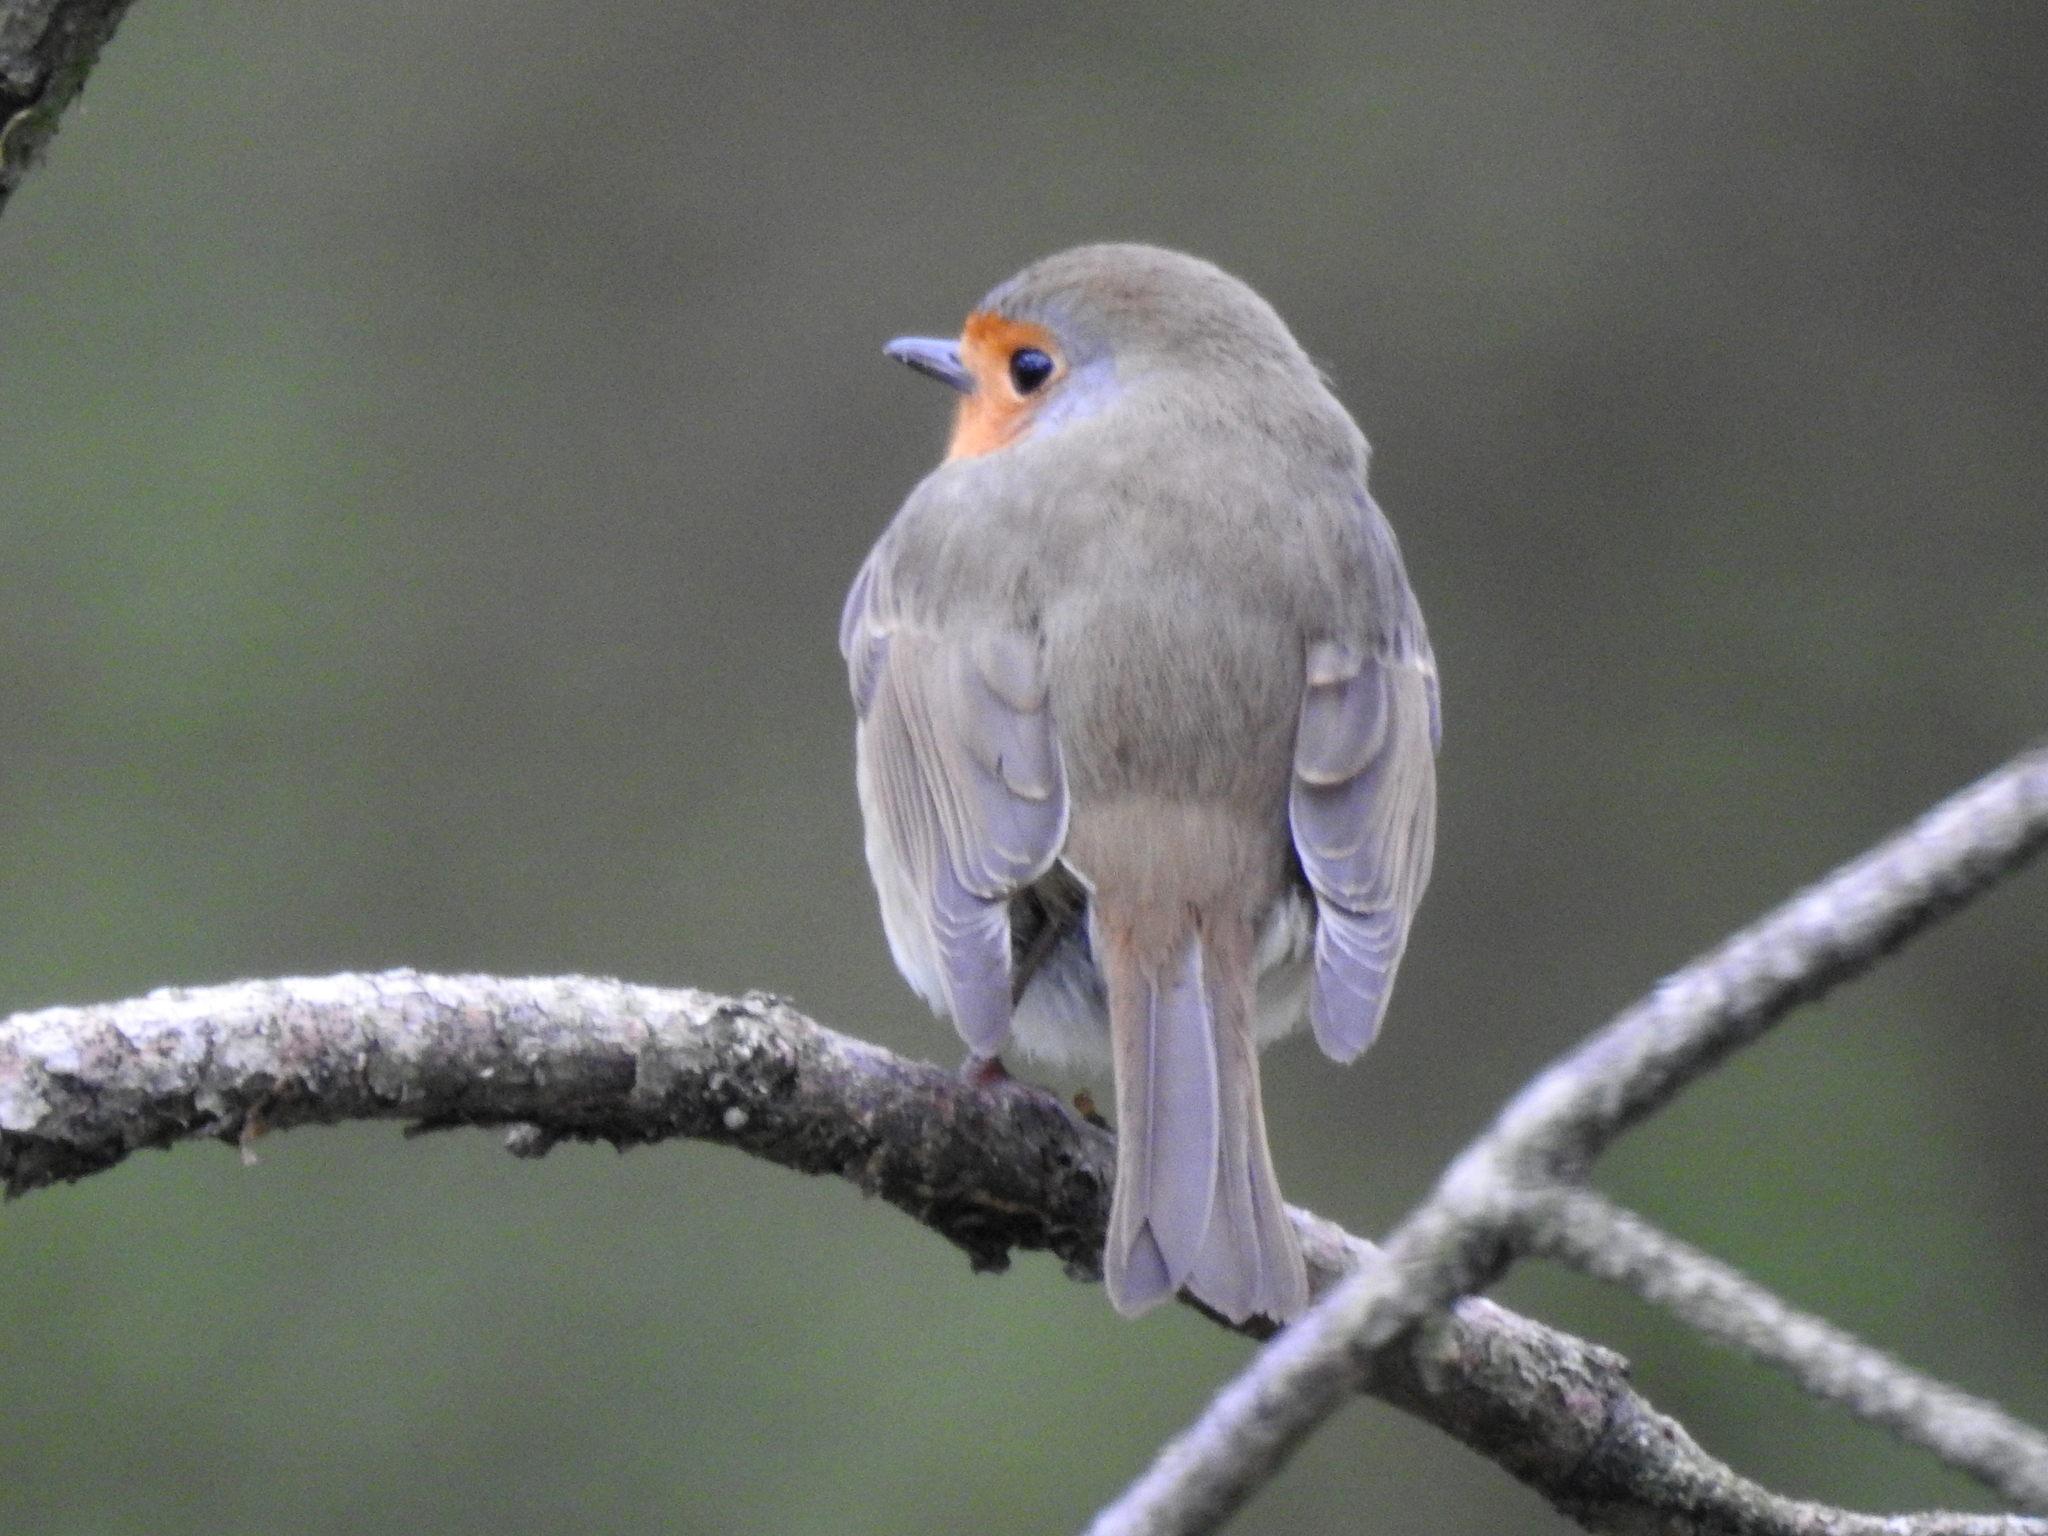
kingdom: Animalia
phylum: Chordata
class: Aves
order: Passeriformes
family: Muscicapidae
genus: Erithacus
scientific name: Erithacus rubecula
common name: European robin
